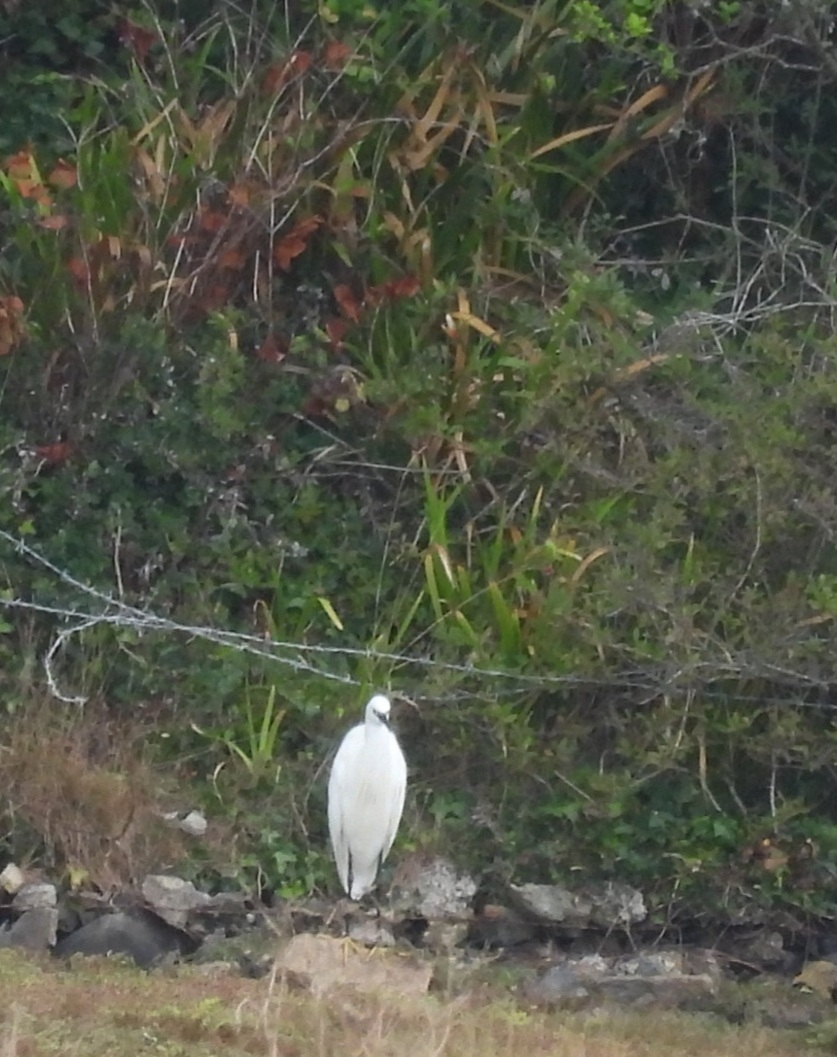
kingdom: Animalia
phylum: Chordata
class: Aves
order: Pelecaniformes
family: Ardeidae
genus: Egretta
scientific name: Egretta garzetta
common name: Little egret
